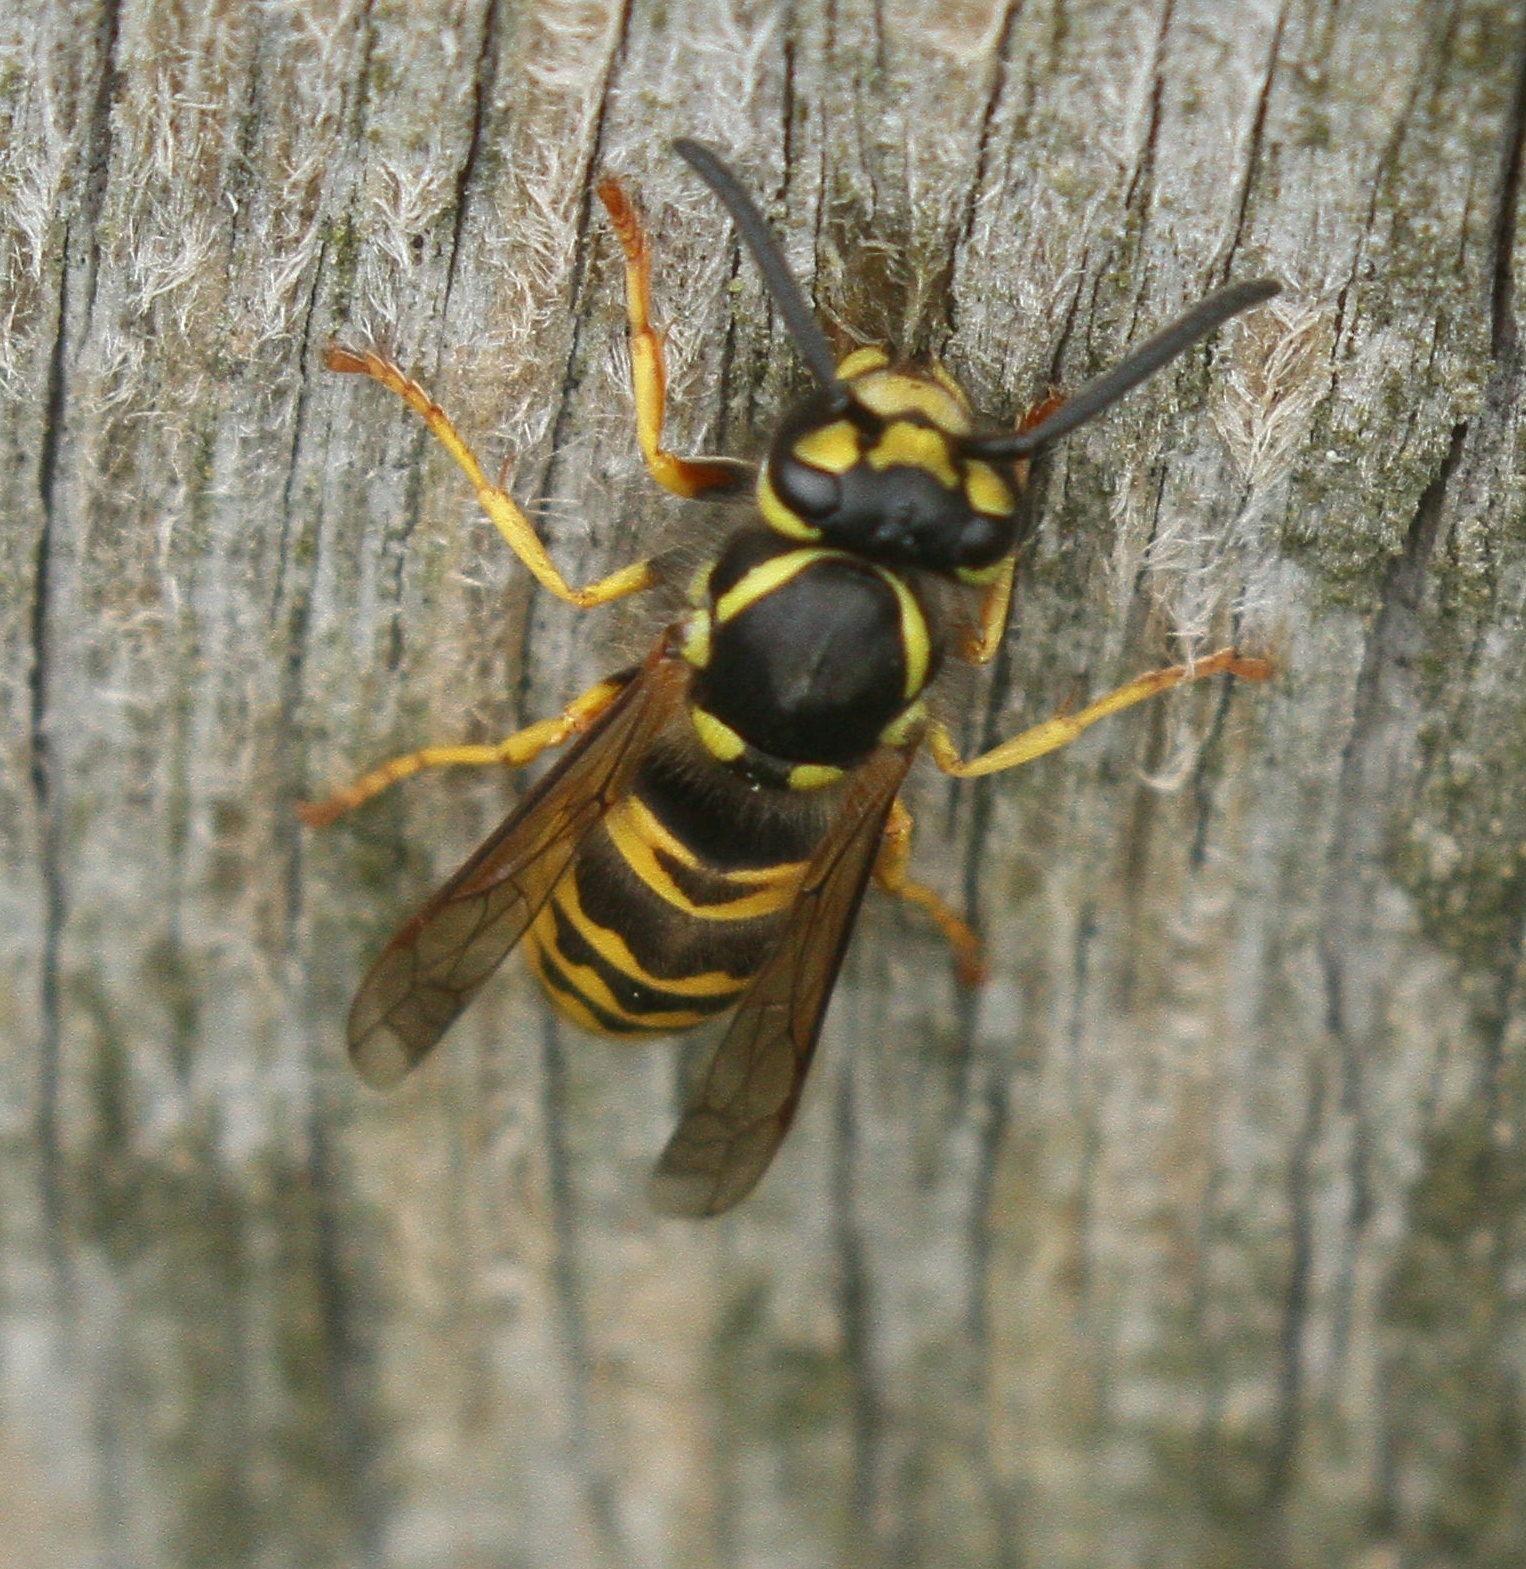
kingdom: Animalia
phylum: Arthropoda
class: Insecta
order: Hymenoptera
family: Vespidae
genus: Vespula
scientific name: Vespula germanica
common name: German wasp
